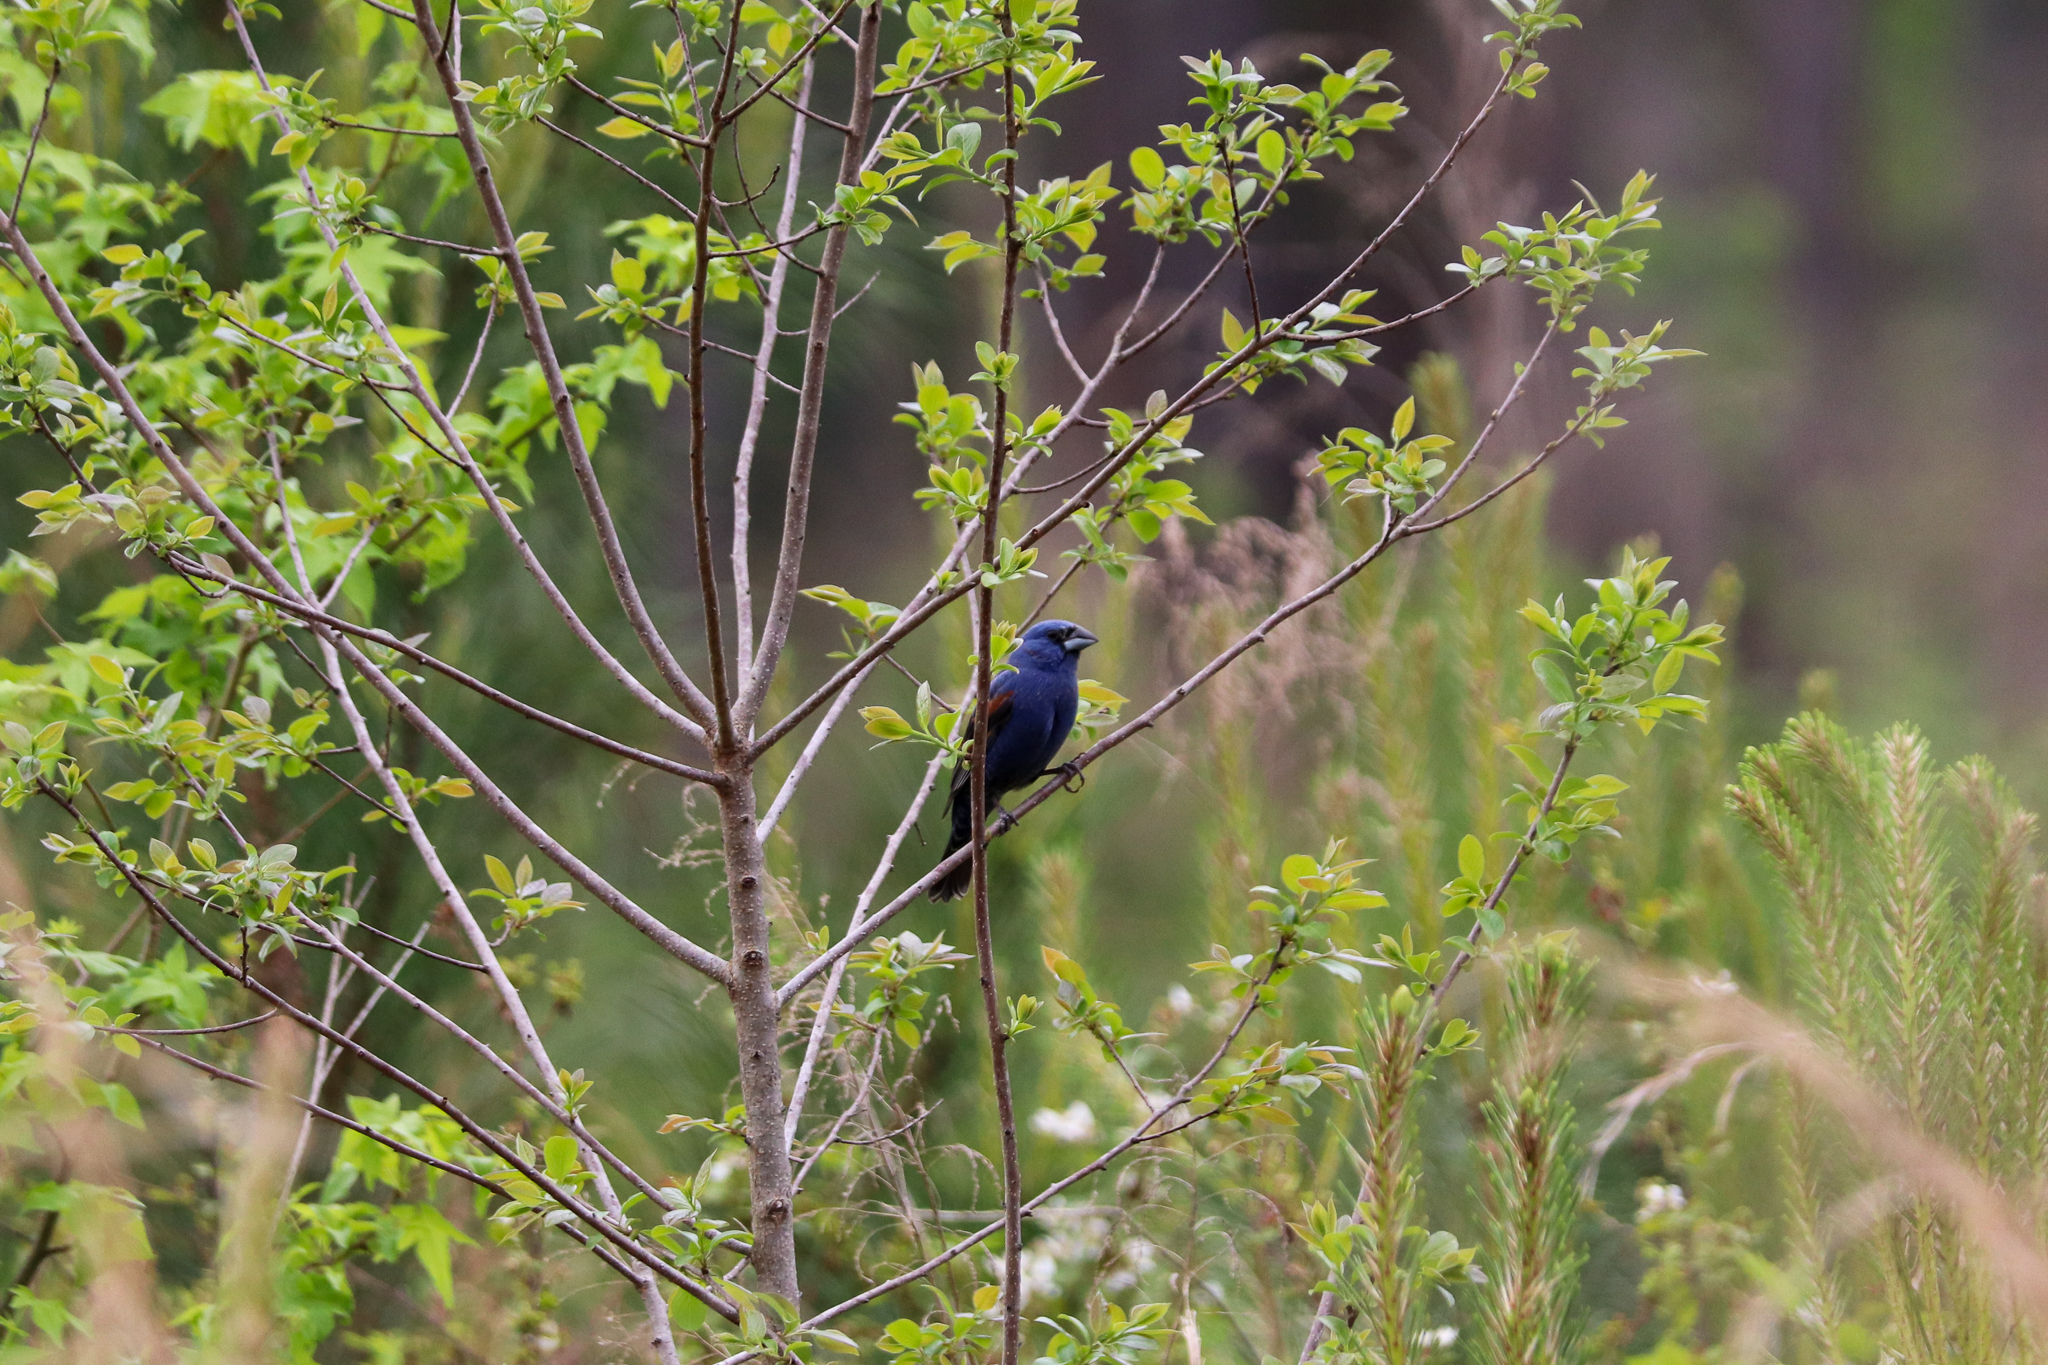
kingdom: Animalia
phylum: Chordata
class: Aves
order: Passeriformes
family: Cardinalidae
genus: Passerina
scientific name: Passerina caerulea
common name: Blue grosbeak
